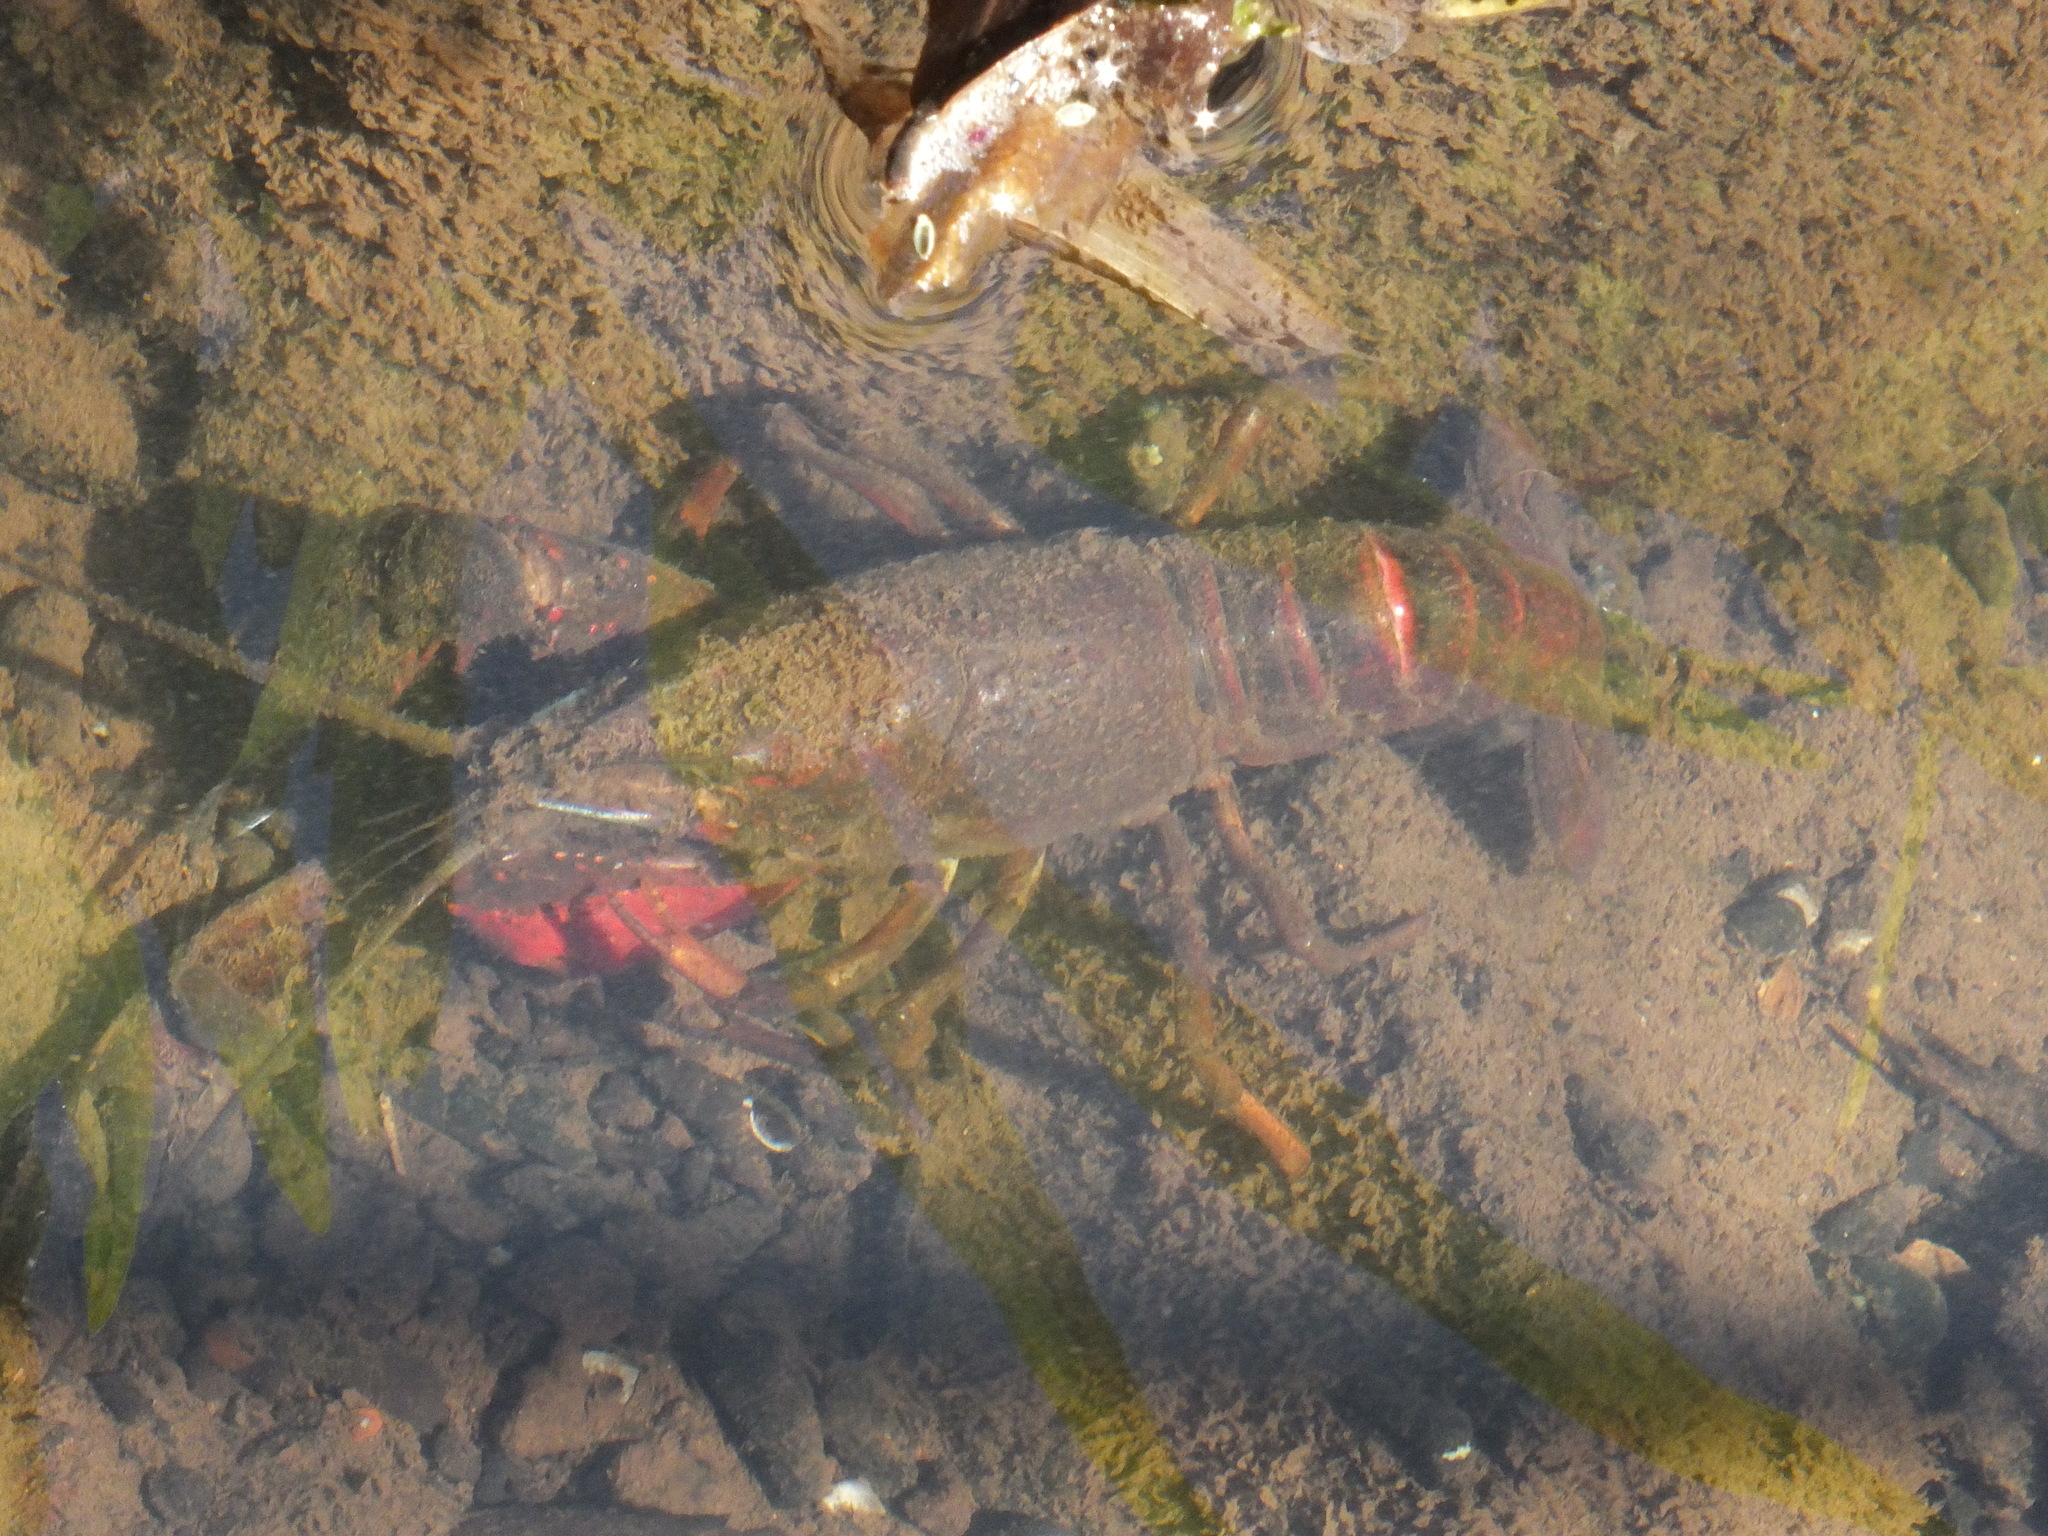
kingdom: Animalia
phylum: Arthropoda
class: Malacostraca
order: Decapoda
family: Cambaridae
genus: Procambarus
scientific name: Procambarus clarkii
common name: Red swamp crayfish
